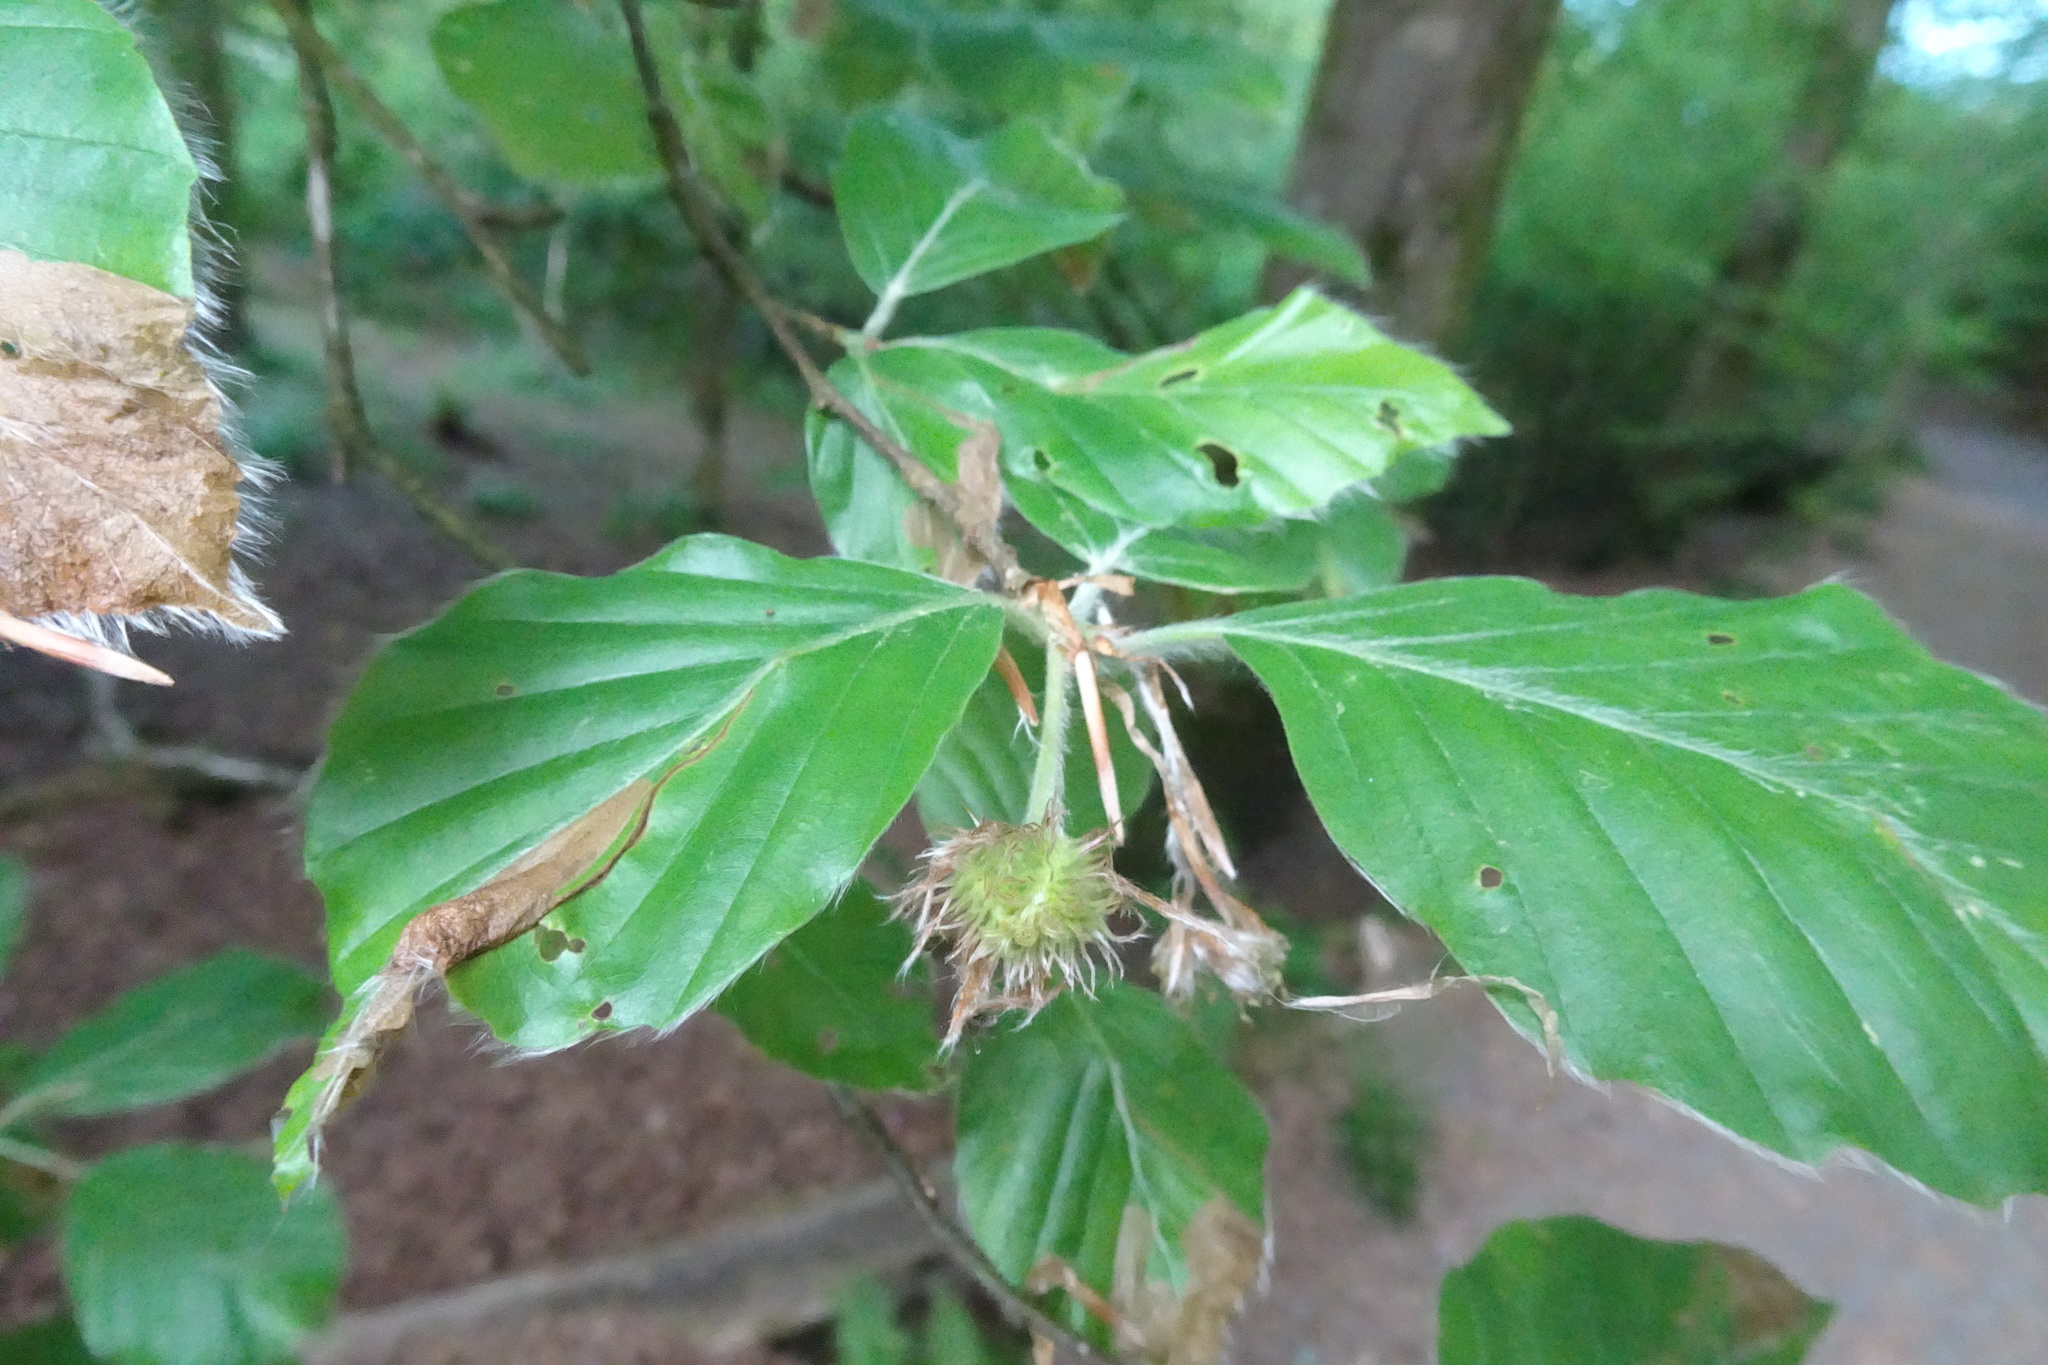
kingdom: Plantae
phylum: Tracheophyta
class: Magnoliopsida
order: Fagales
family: Fagaceae
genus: Fagus
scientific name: Fagus sylvatica
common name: Beech
